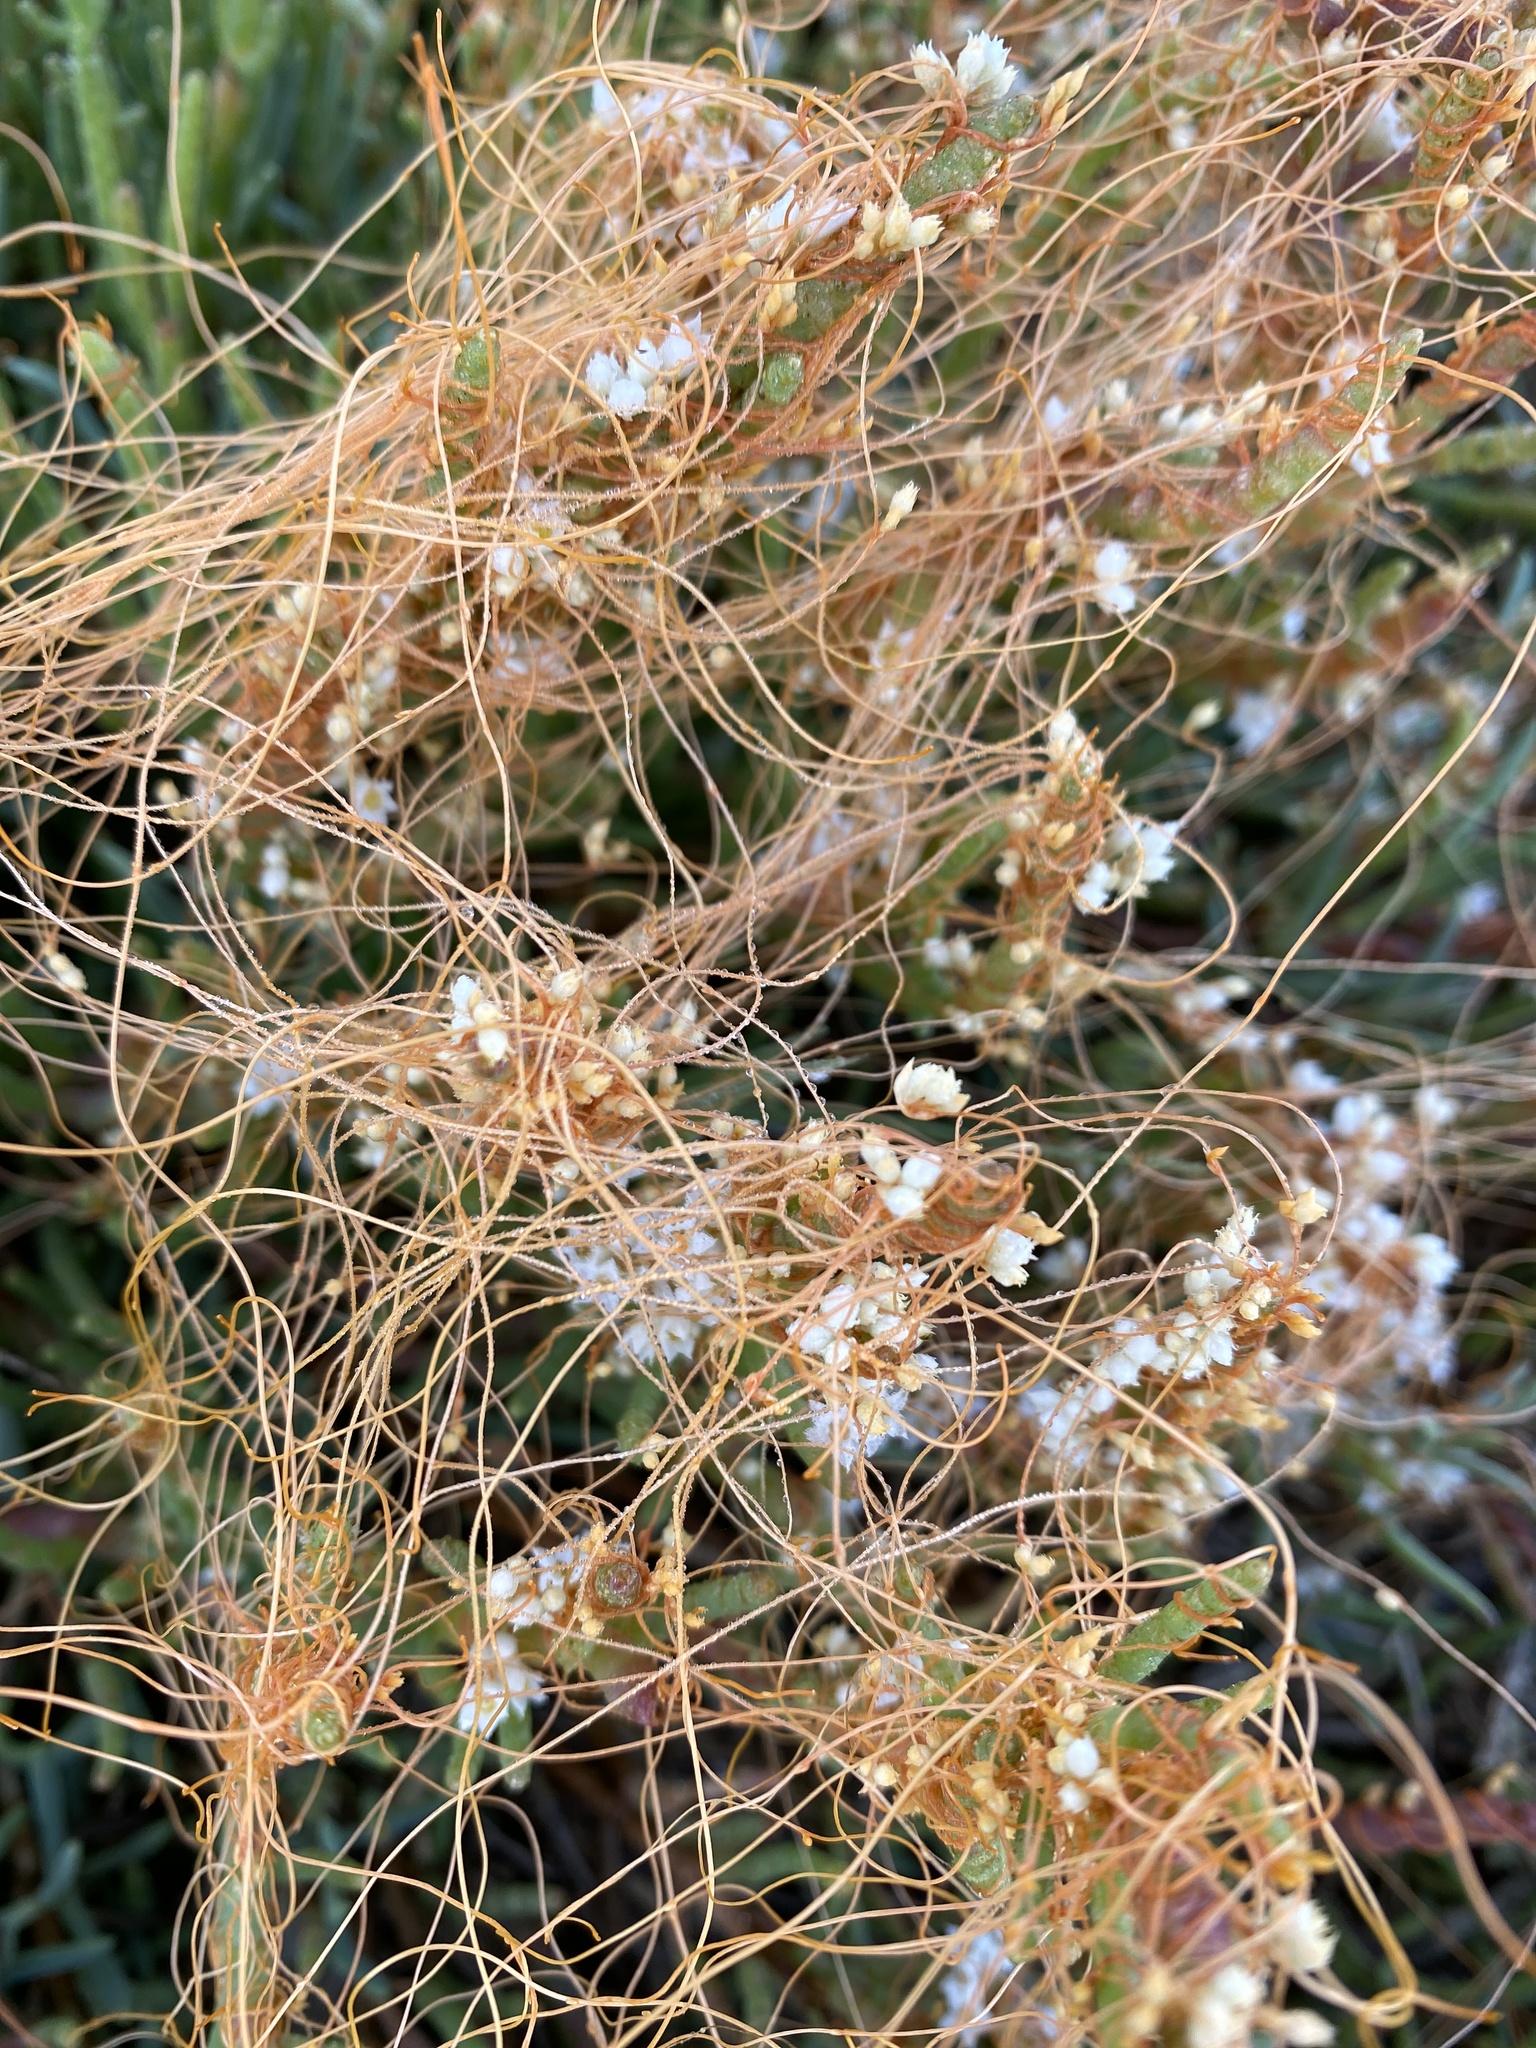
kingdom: Plantae
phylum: Tracheophyta
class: Magnoliopsida
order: Solanales
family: Convolvulaceae
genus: Cuscuta
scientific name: Cuscuta pacifica
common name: Large saltmarsh dodder
